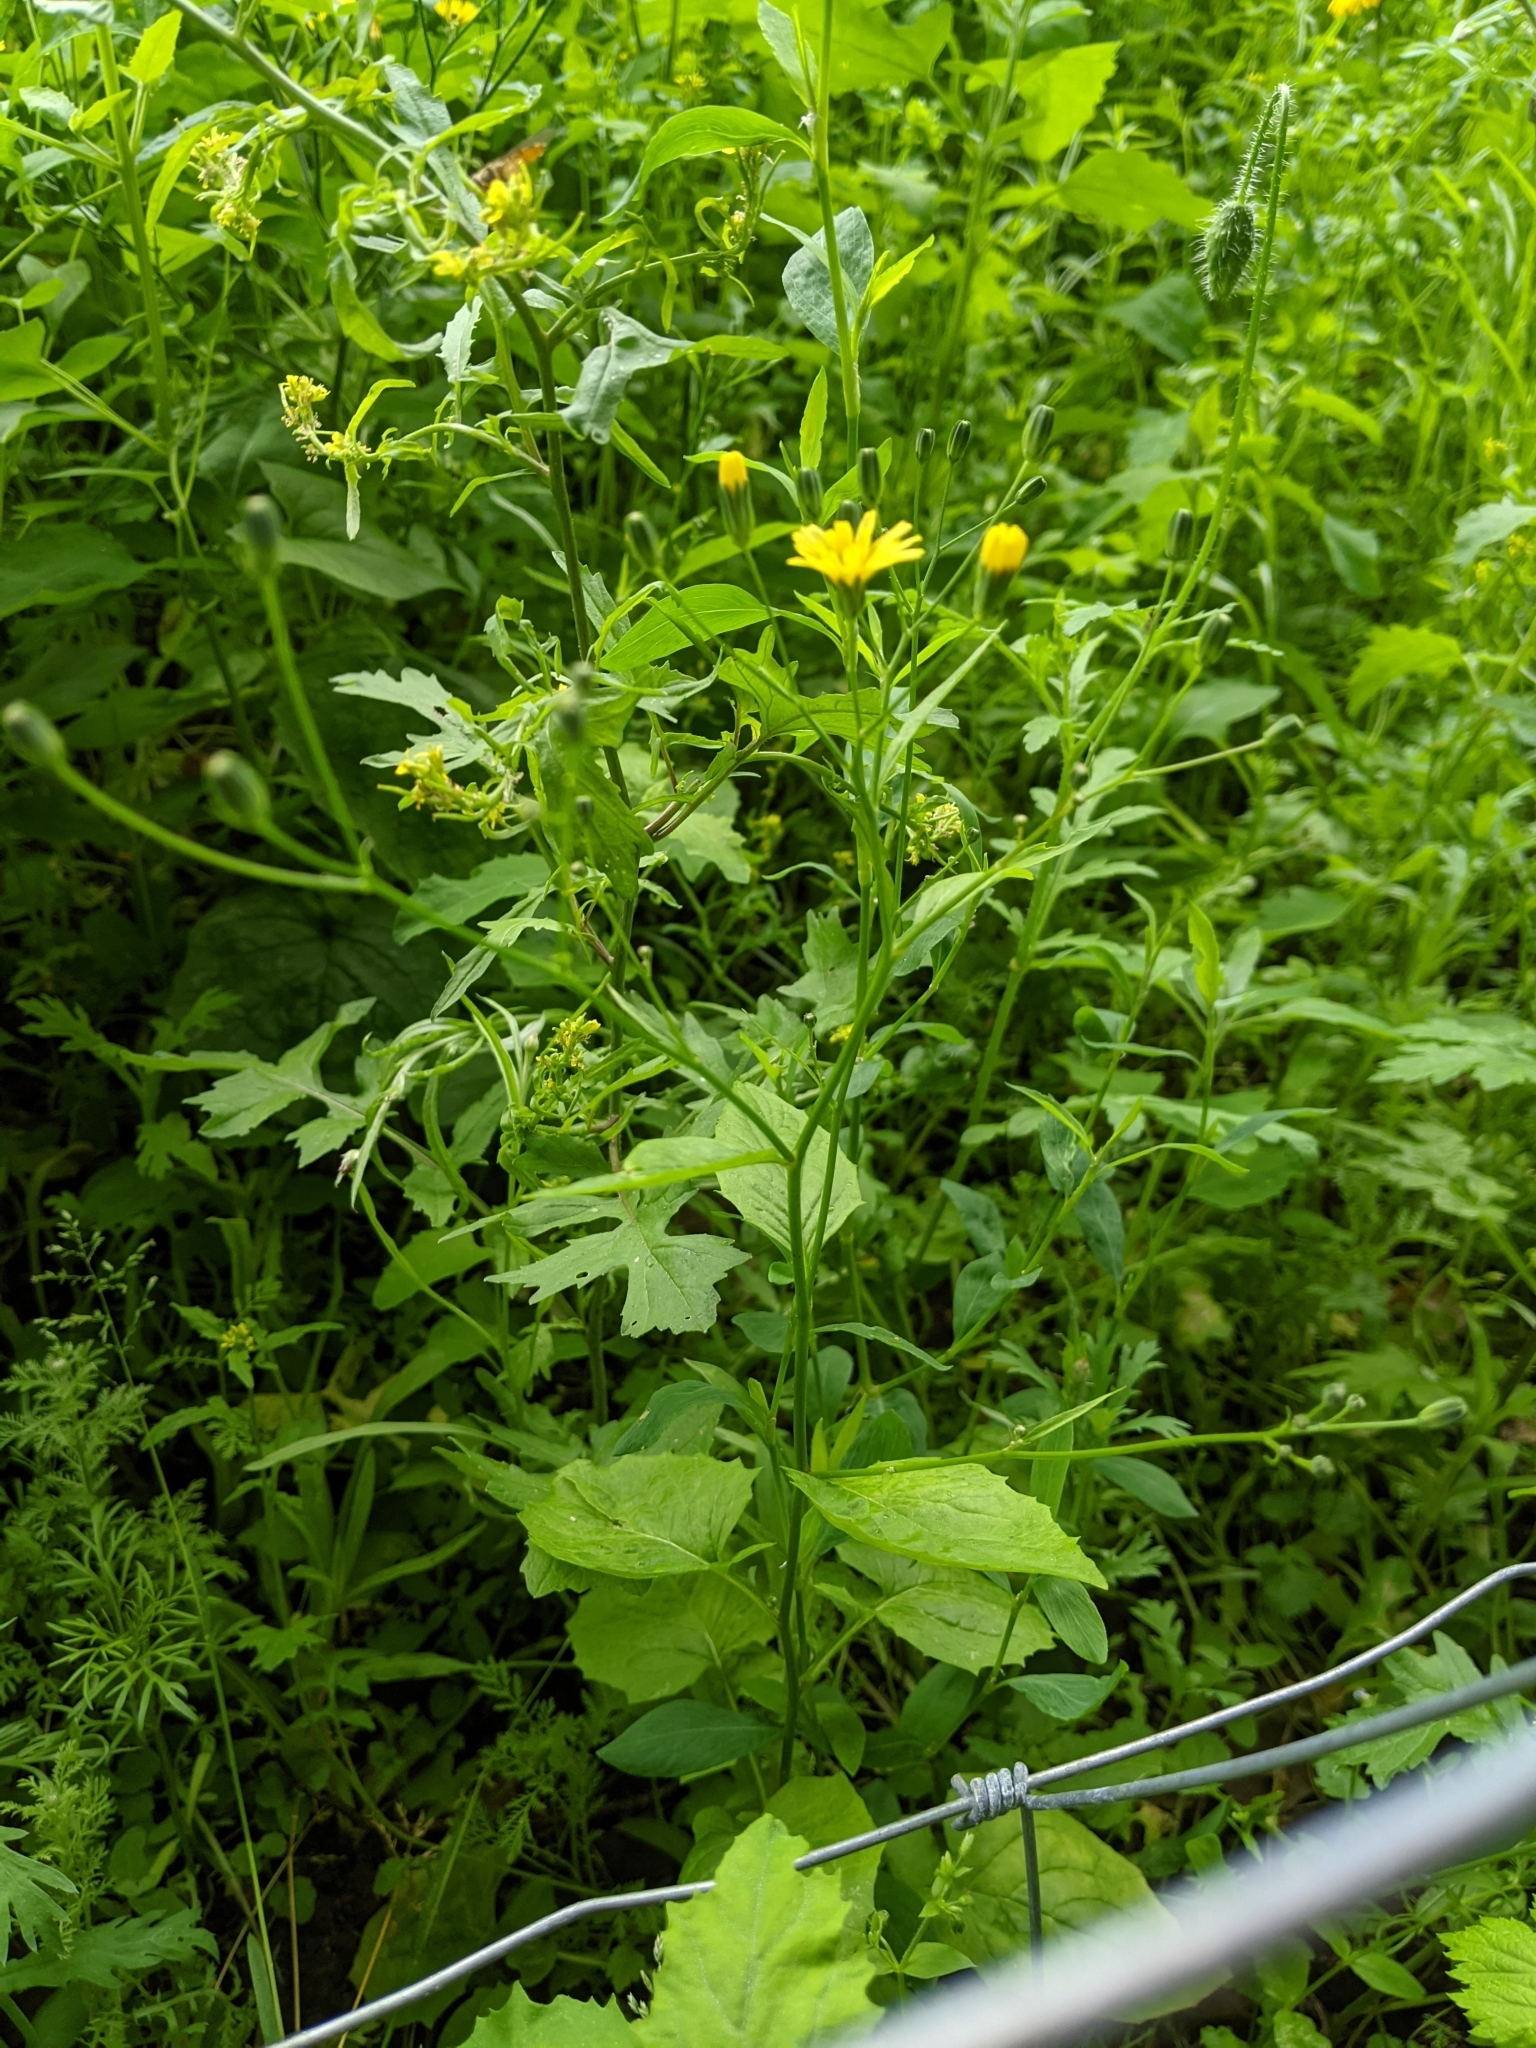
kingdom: Plantae
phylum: Tracheophyta
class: Magnoliopsida
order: Asterales
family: Asteraceae
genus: Lapsana
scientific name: Lapsana communis
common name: Nipplewort
